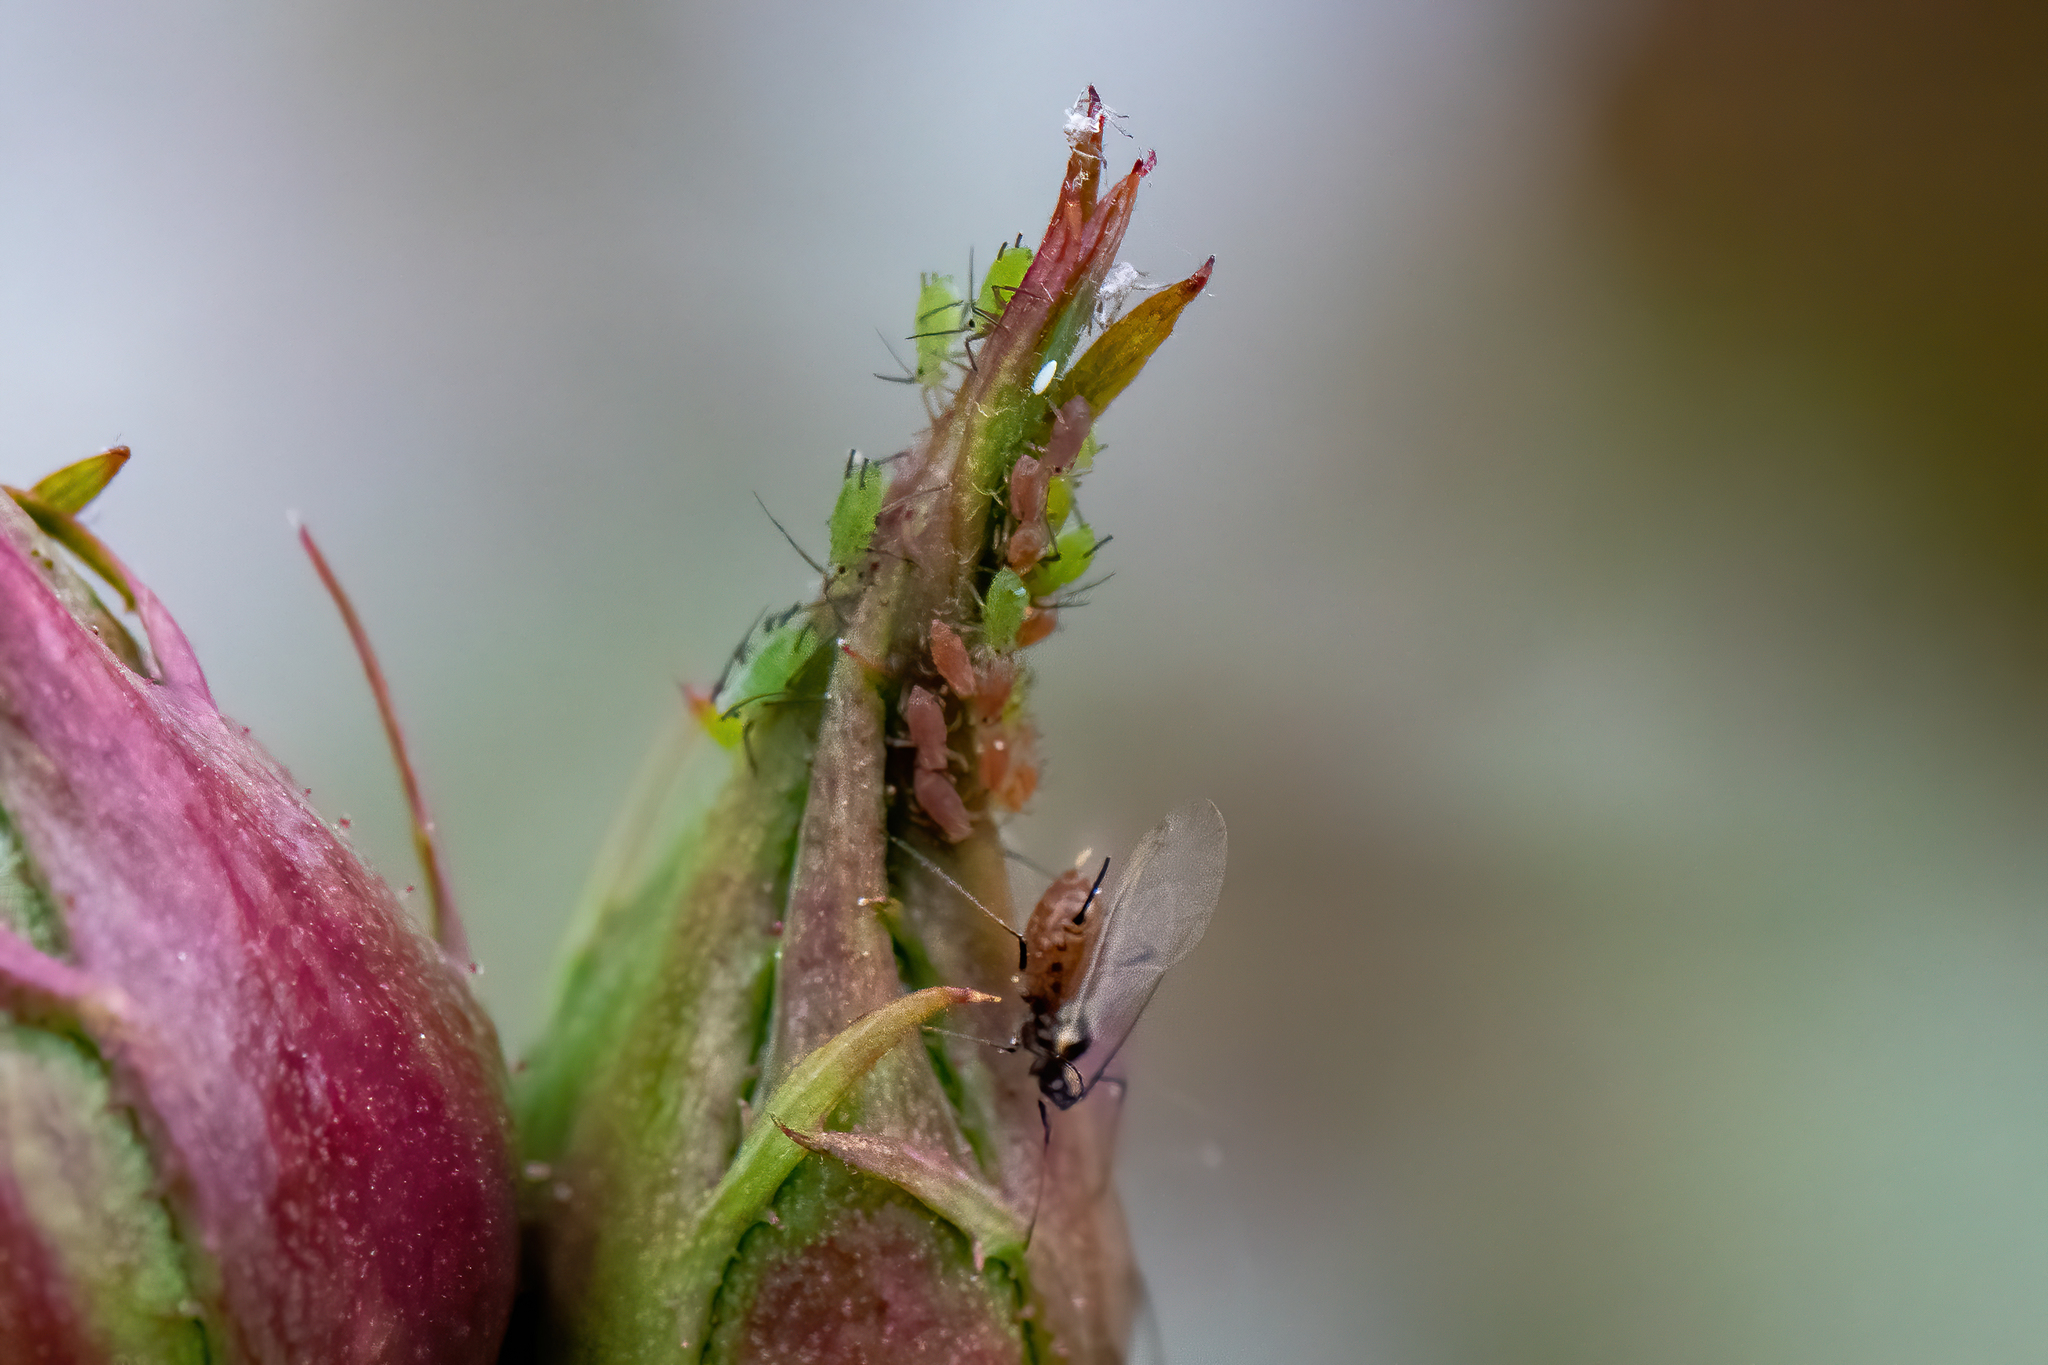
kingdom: Animalia
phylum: Arthropoda
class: Insecta
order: Hemiptera
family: Aphididae
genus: Macrosiphum
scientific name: Macrosiphum rosae
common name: Rose aphid
